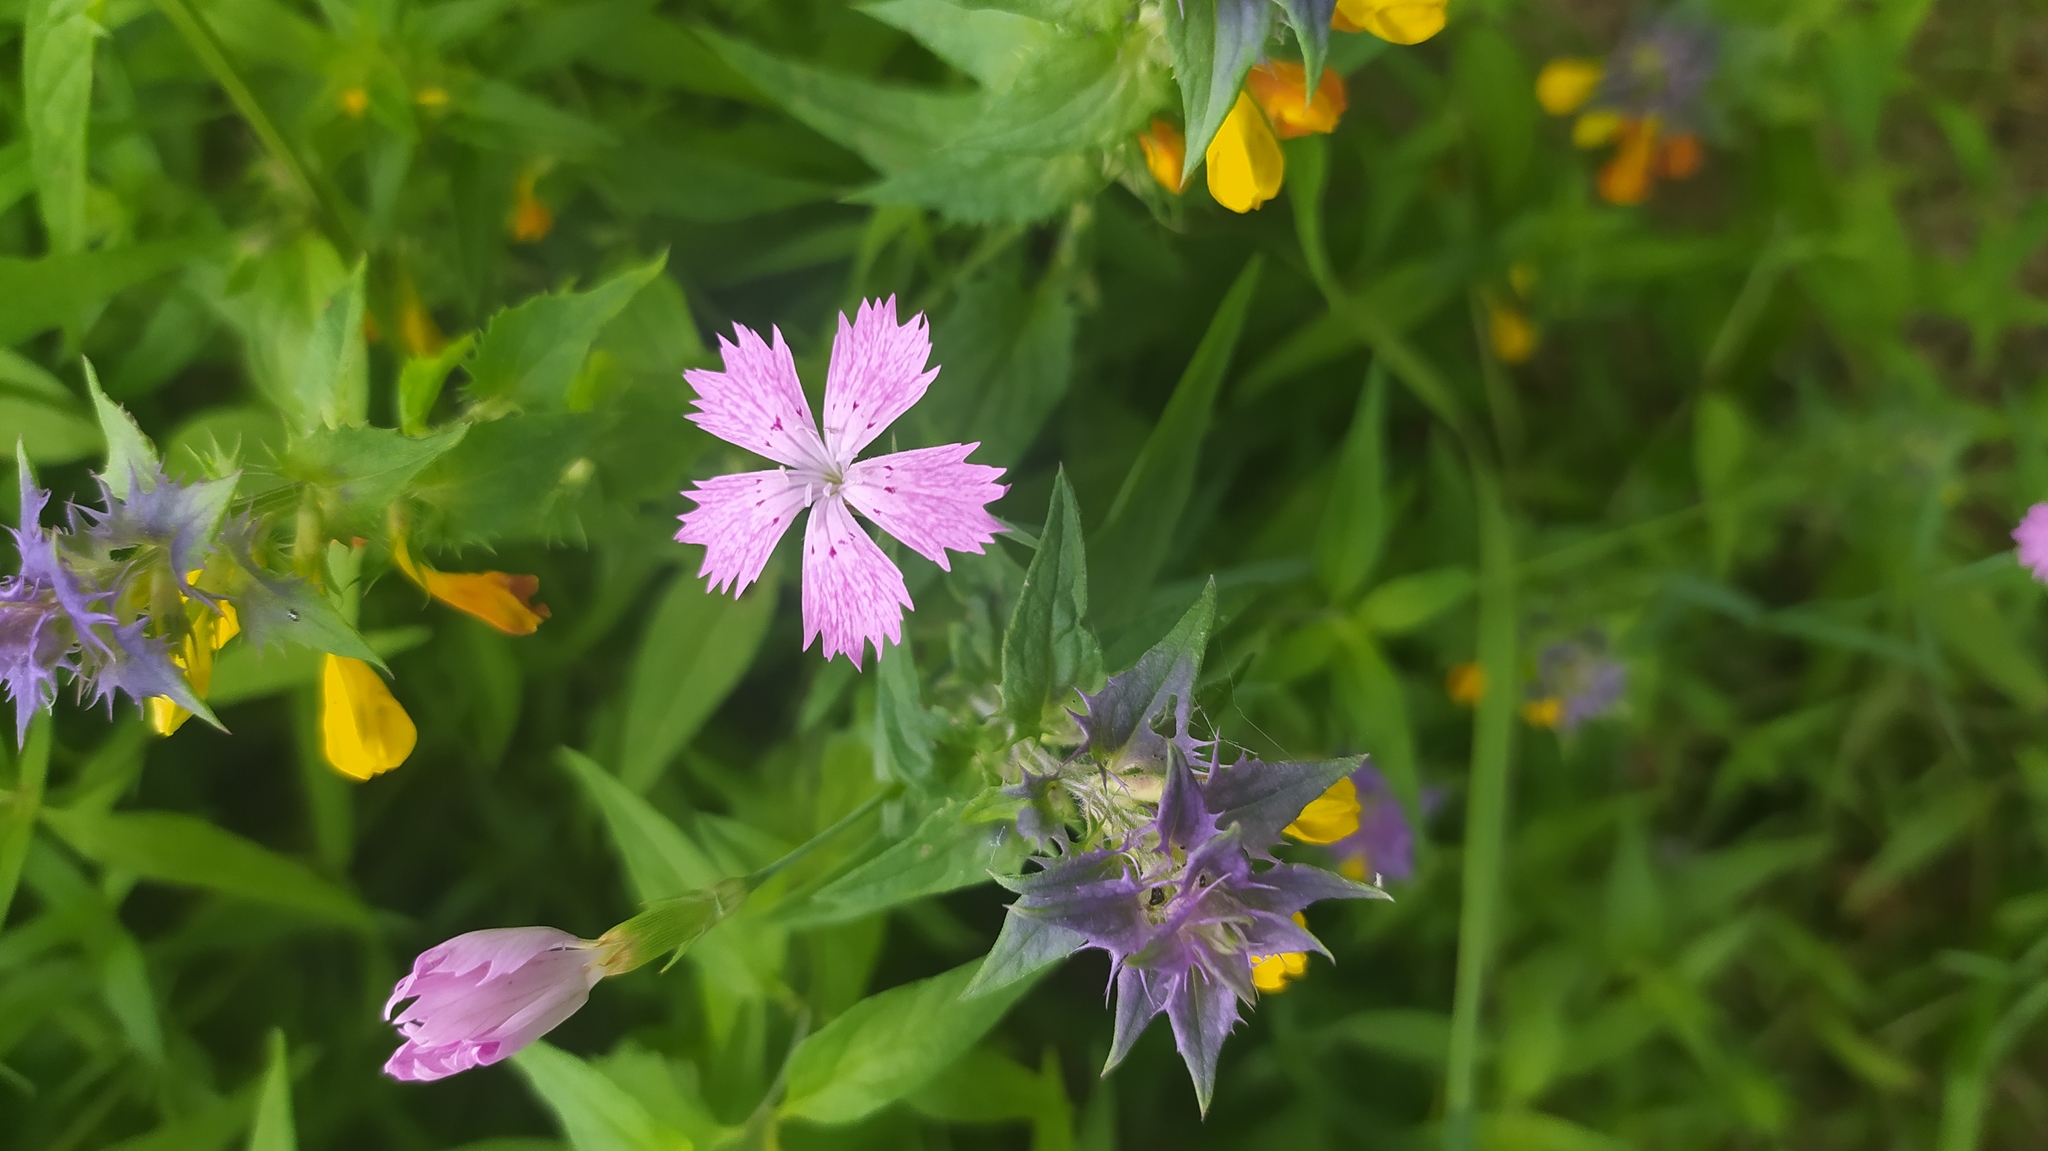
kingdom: Plantae
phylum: Tracheophyta
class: Magnoliopsida
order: Caryophyllales
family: Caryophyllaceae
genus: Dianthus
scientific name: Dianthus chinensis
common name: Rainbow pink
